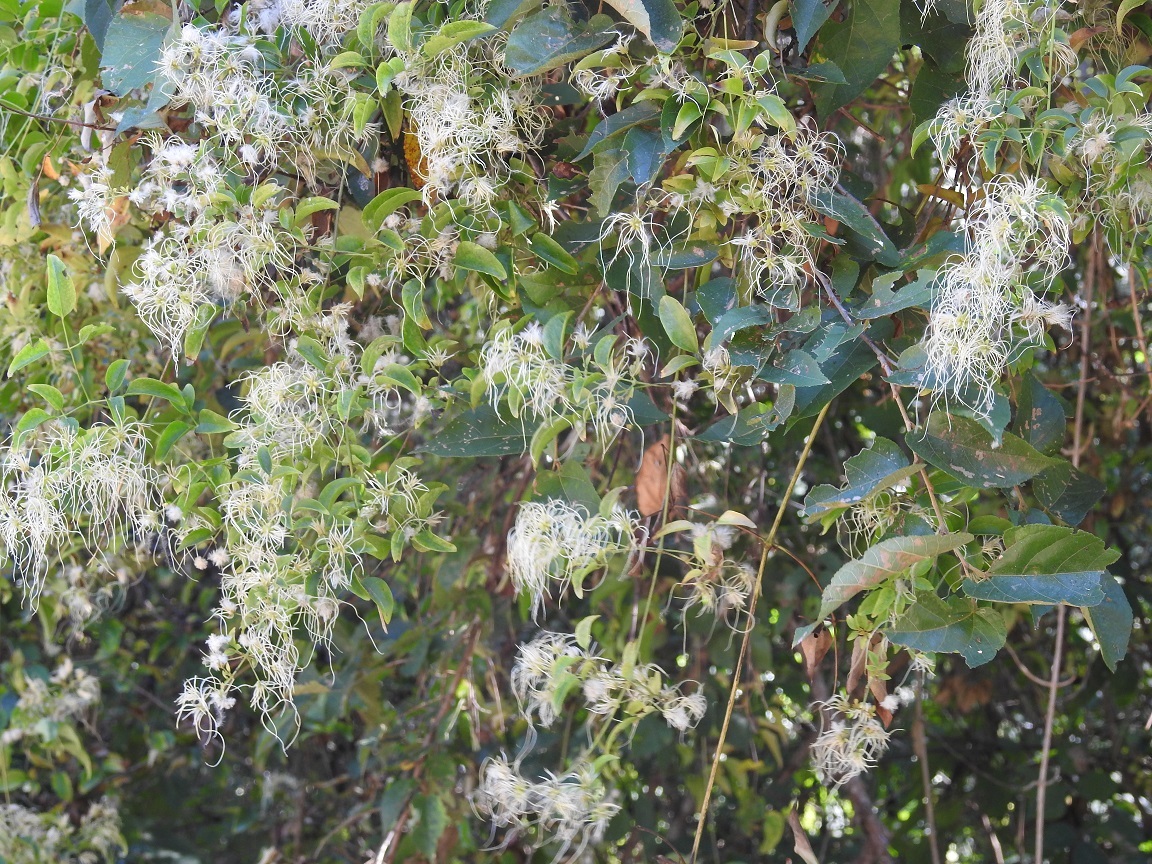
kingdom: Plantae
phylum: Tracheophyta
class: Magnoliopsida
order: Ranunculales
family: Ranunculaceae
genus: Clematis
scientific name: Clematis dioica
